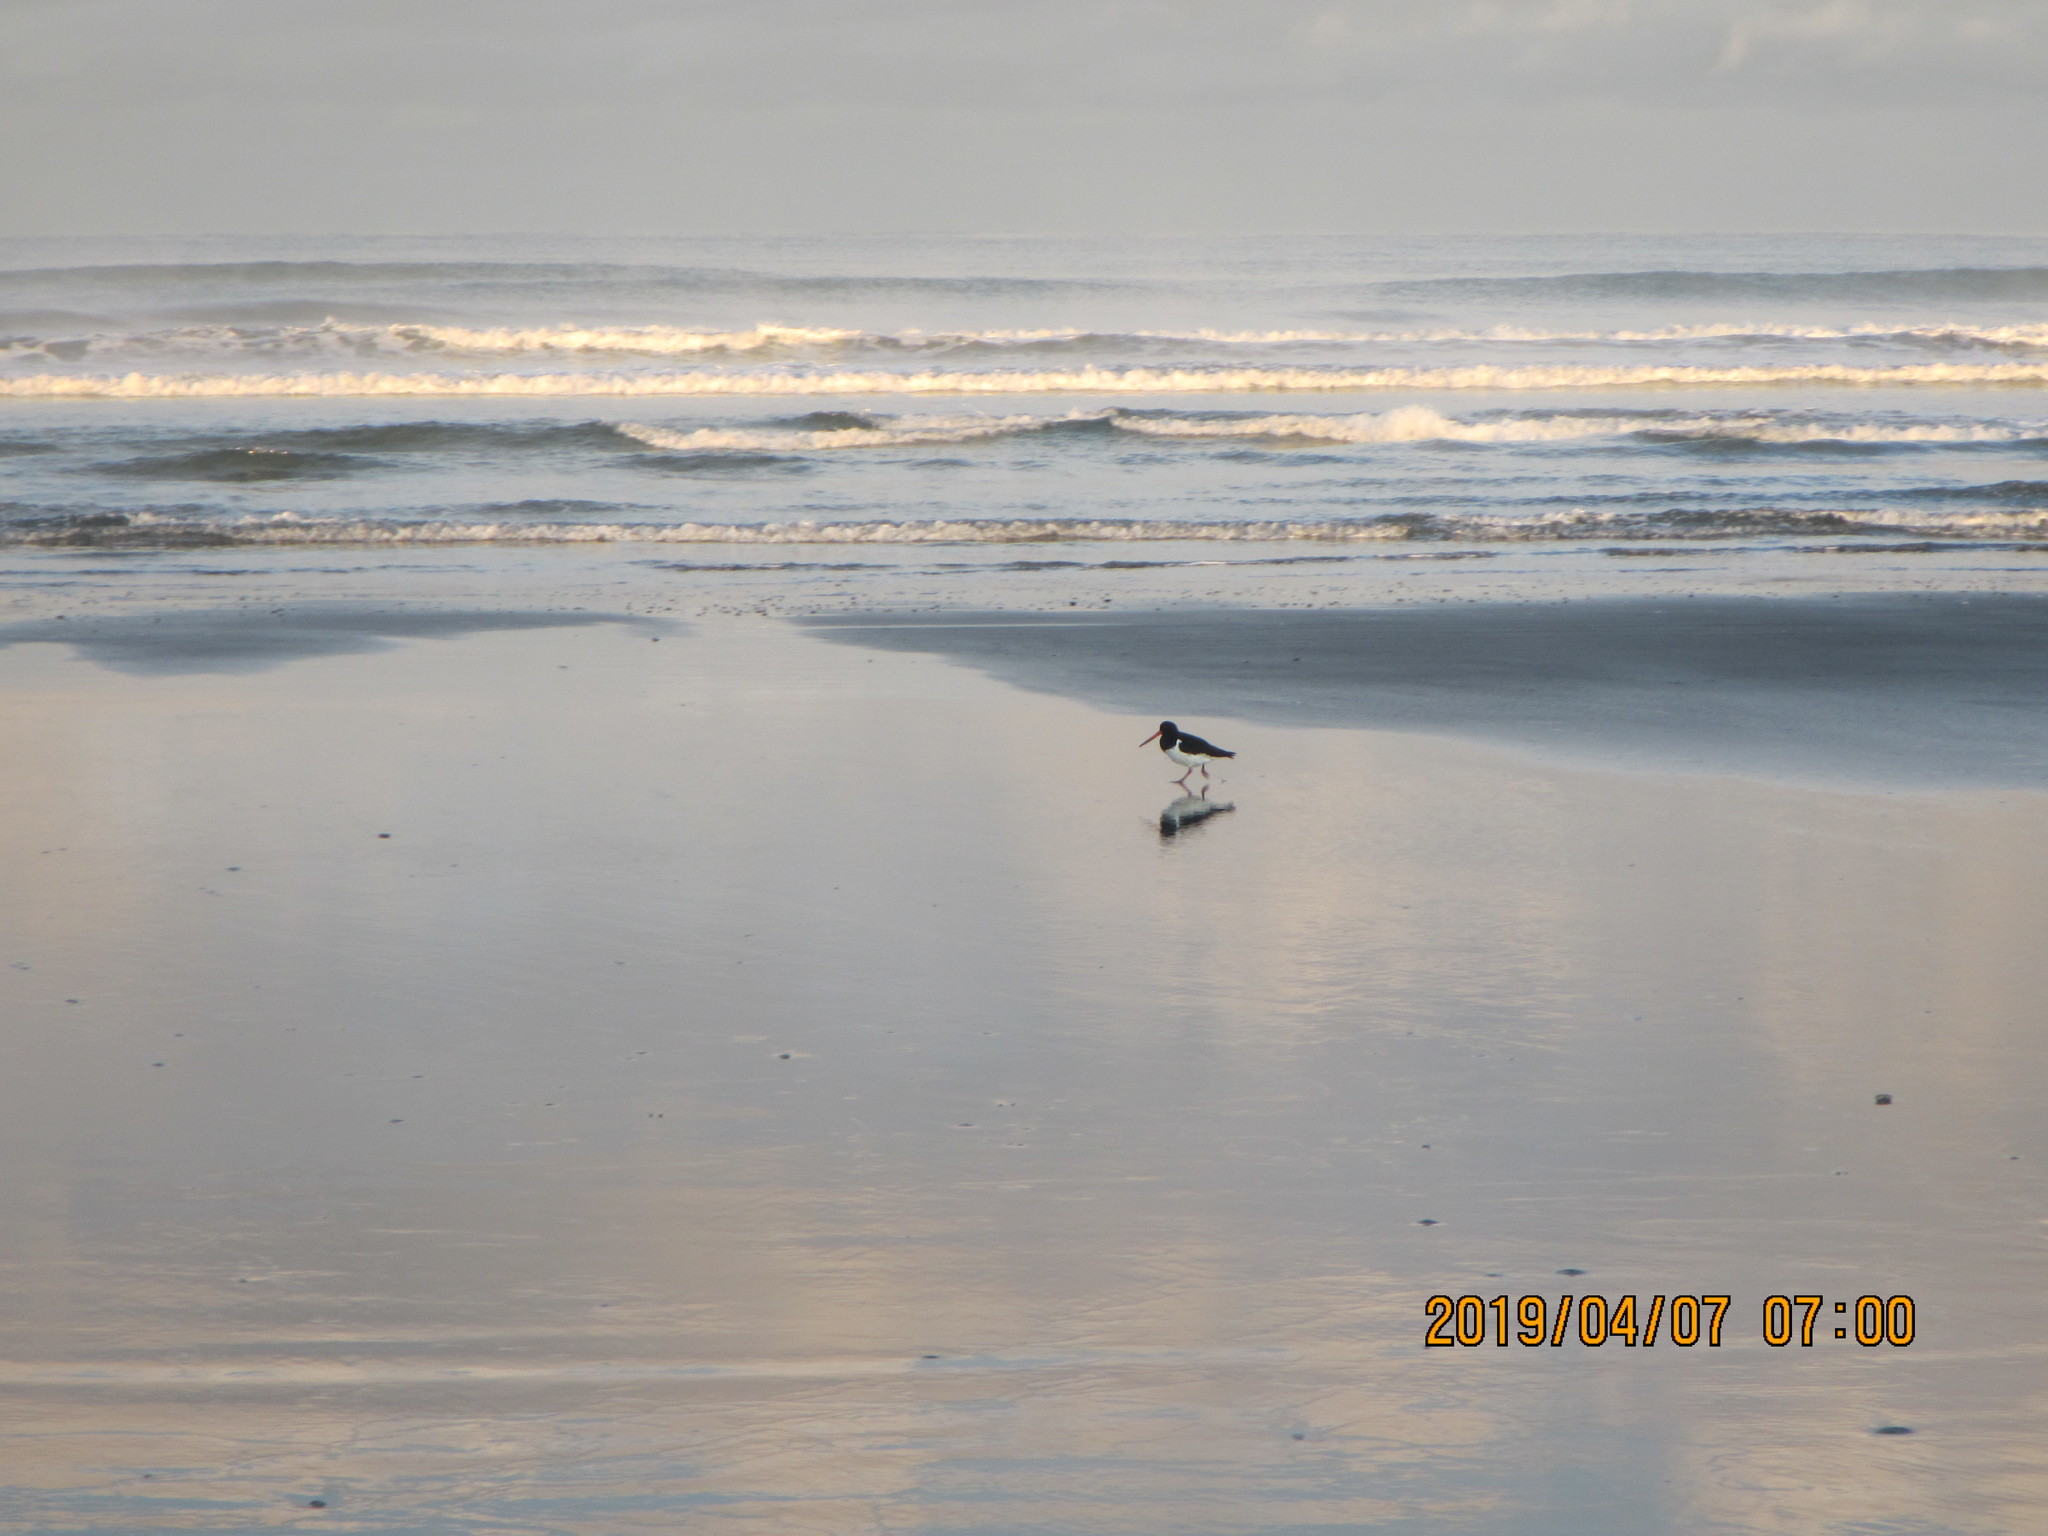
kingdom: Animalia
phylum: Chordata
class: Aves
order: Charadriiformes
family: Haematopodidae
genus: Haematopus
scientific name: Haematopus finschi
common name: South island oystercatcher
